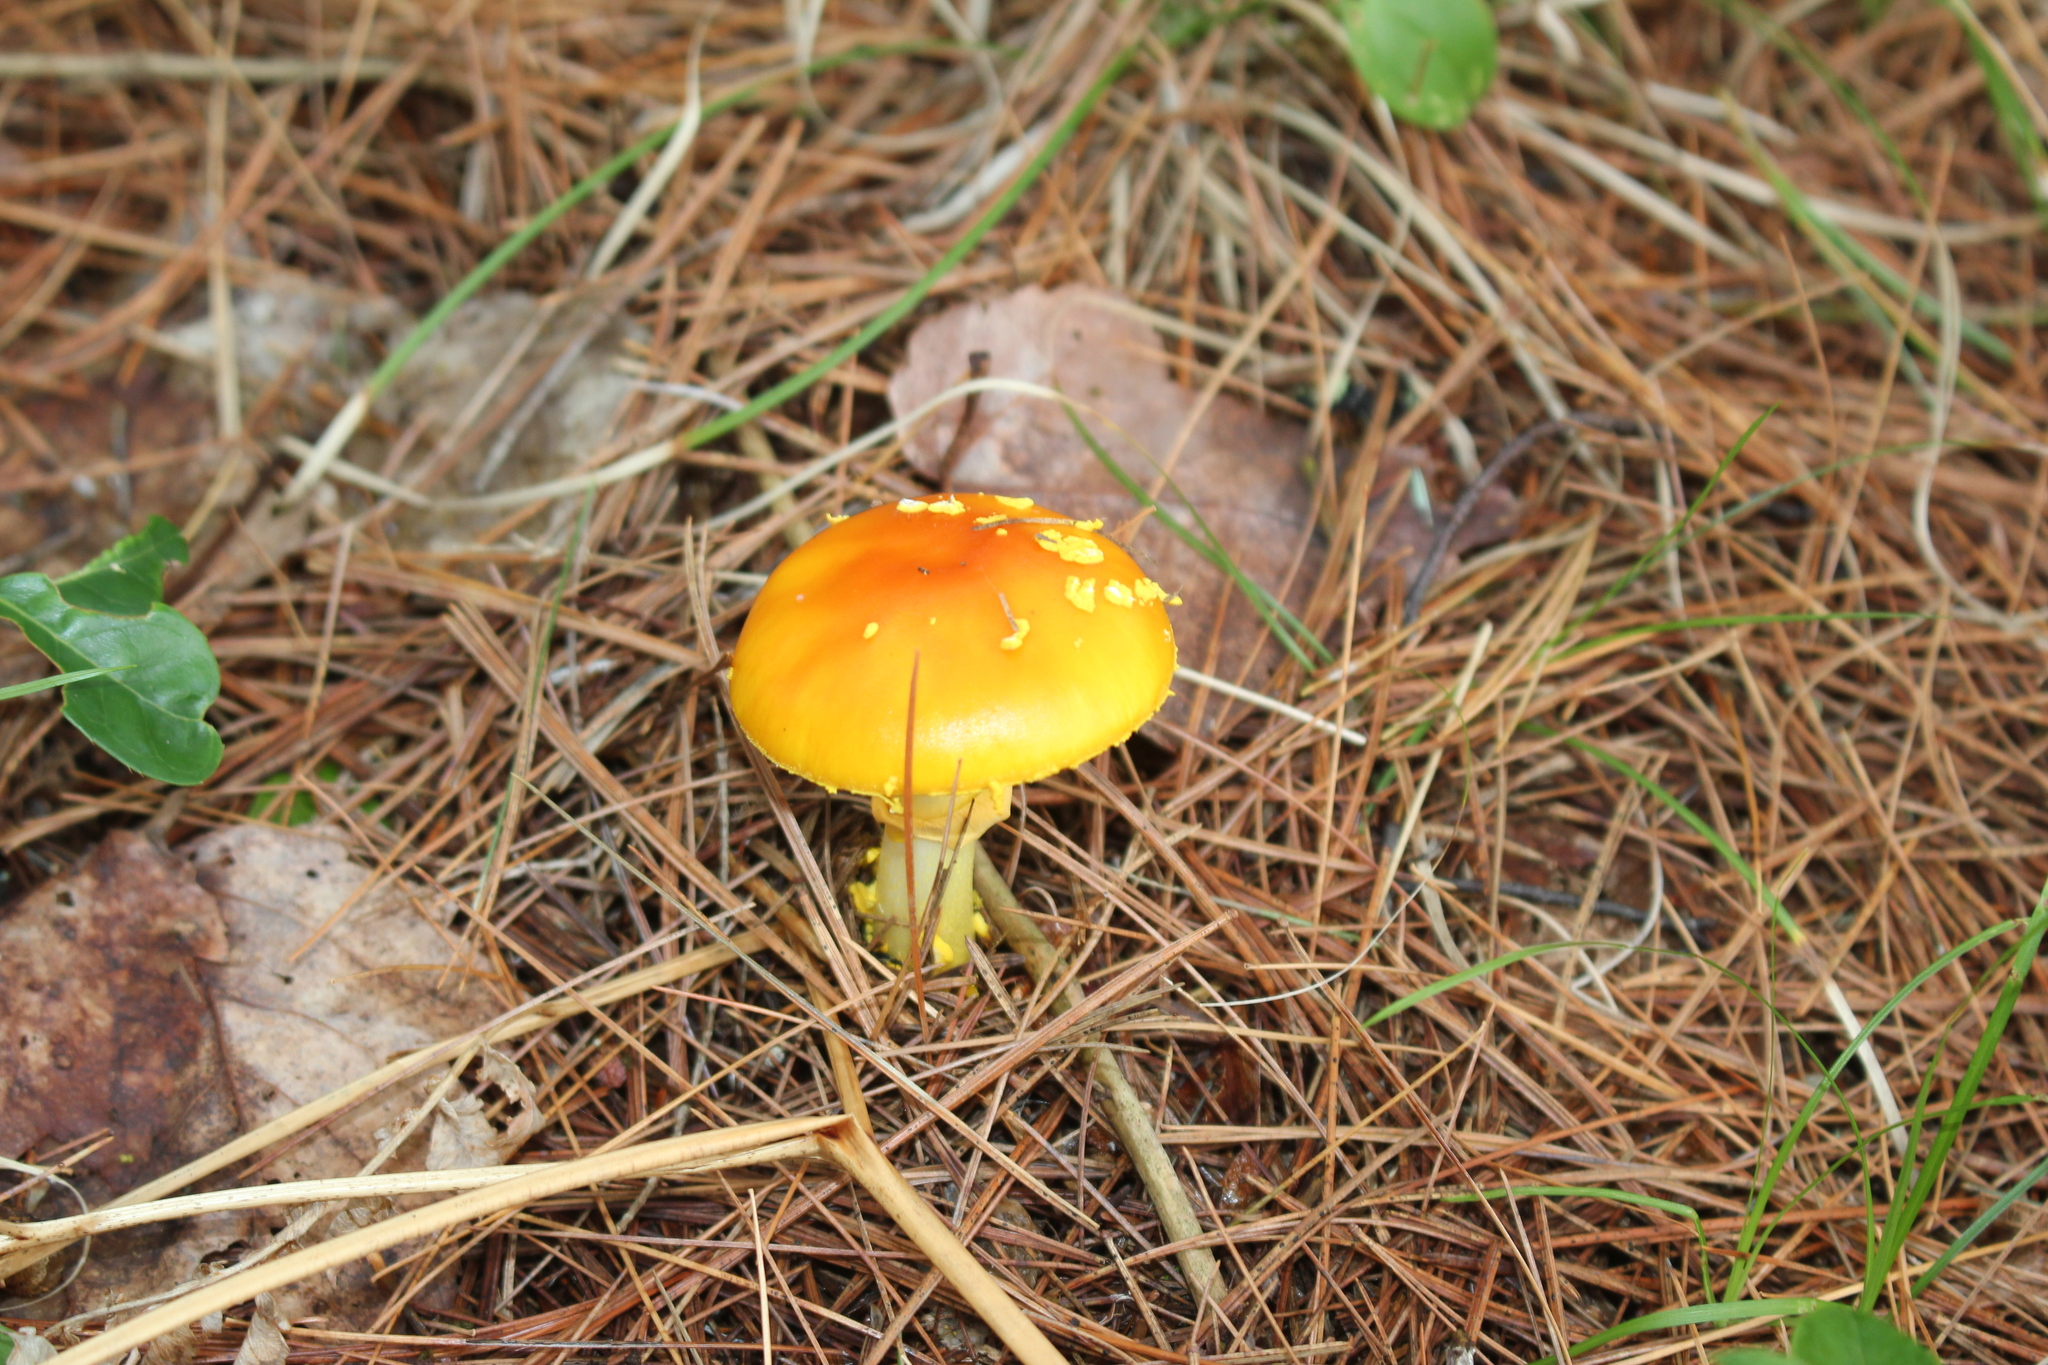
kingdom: Fungi
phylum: Basidiomycota
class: Agaricomycetes
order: Agaricales
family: Amanitaceae
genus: Amanita
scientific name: Amanita flavoconia
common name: Yellow patches
